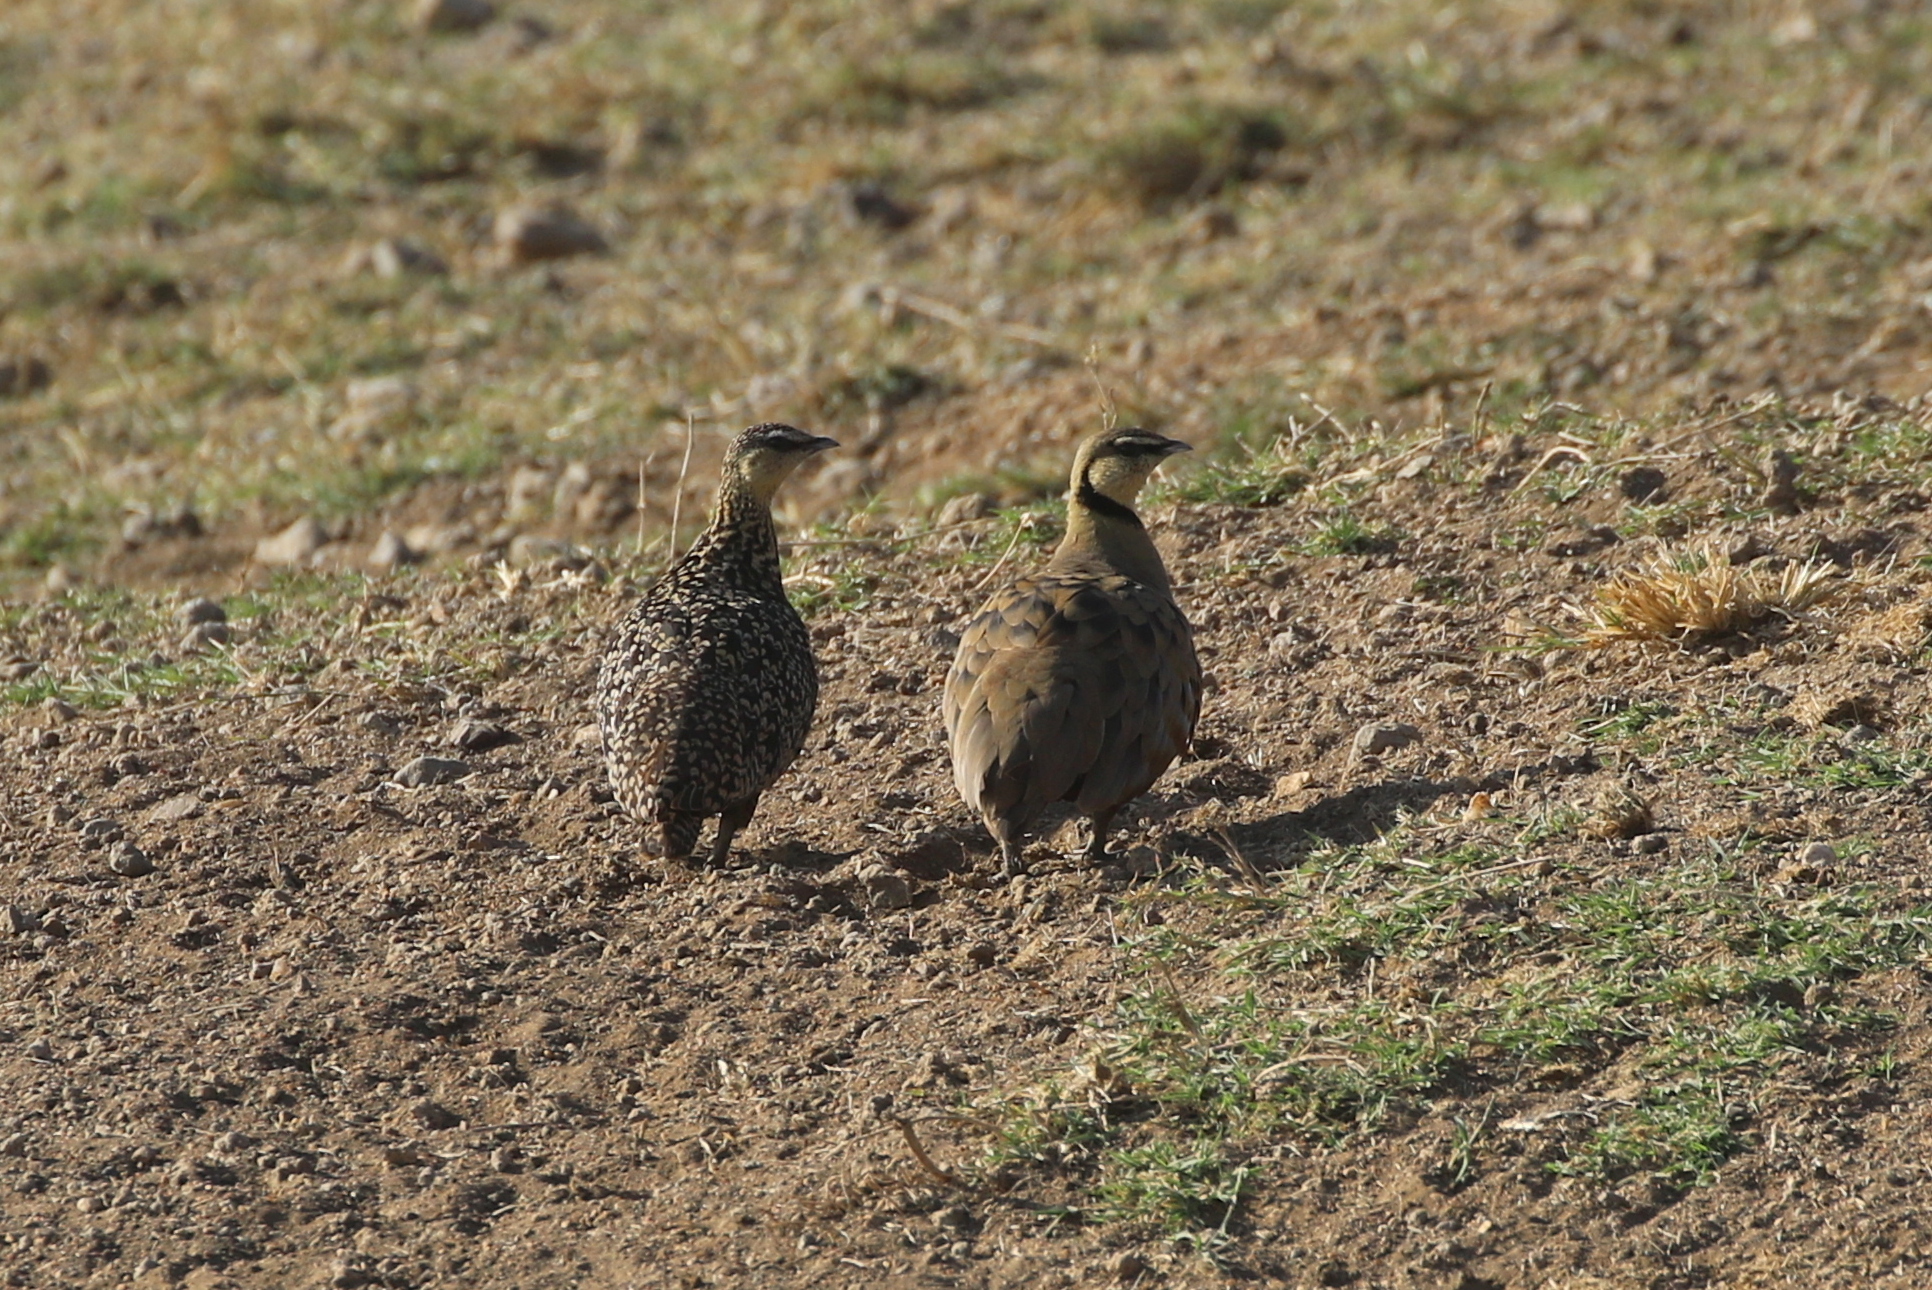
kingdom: Animalia
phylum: Chordata
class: Aves
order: Pteroclidiformes
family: Pteroclididae
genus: Pterocles
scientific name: Pterocles gutturalis
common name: Yellow-throated sandgrouse
